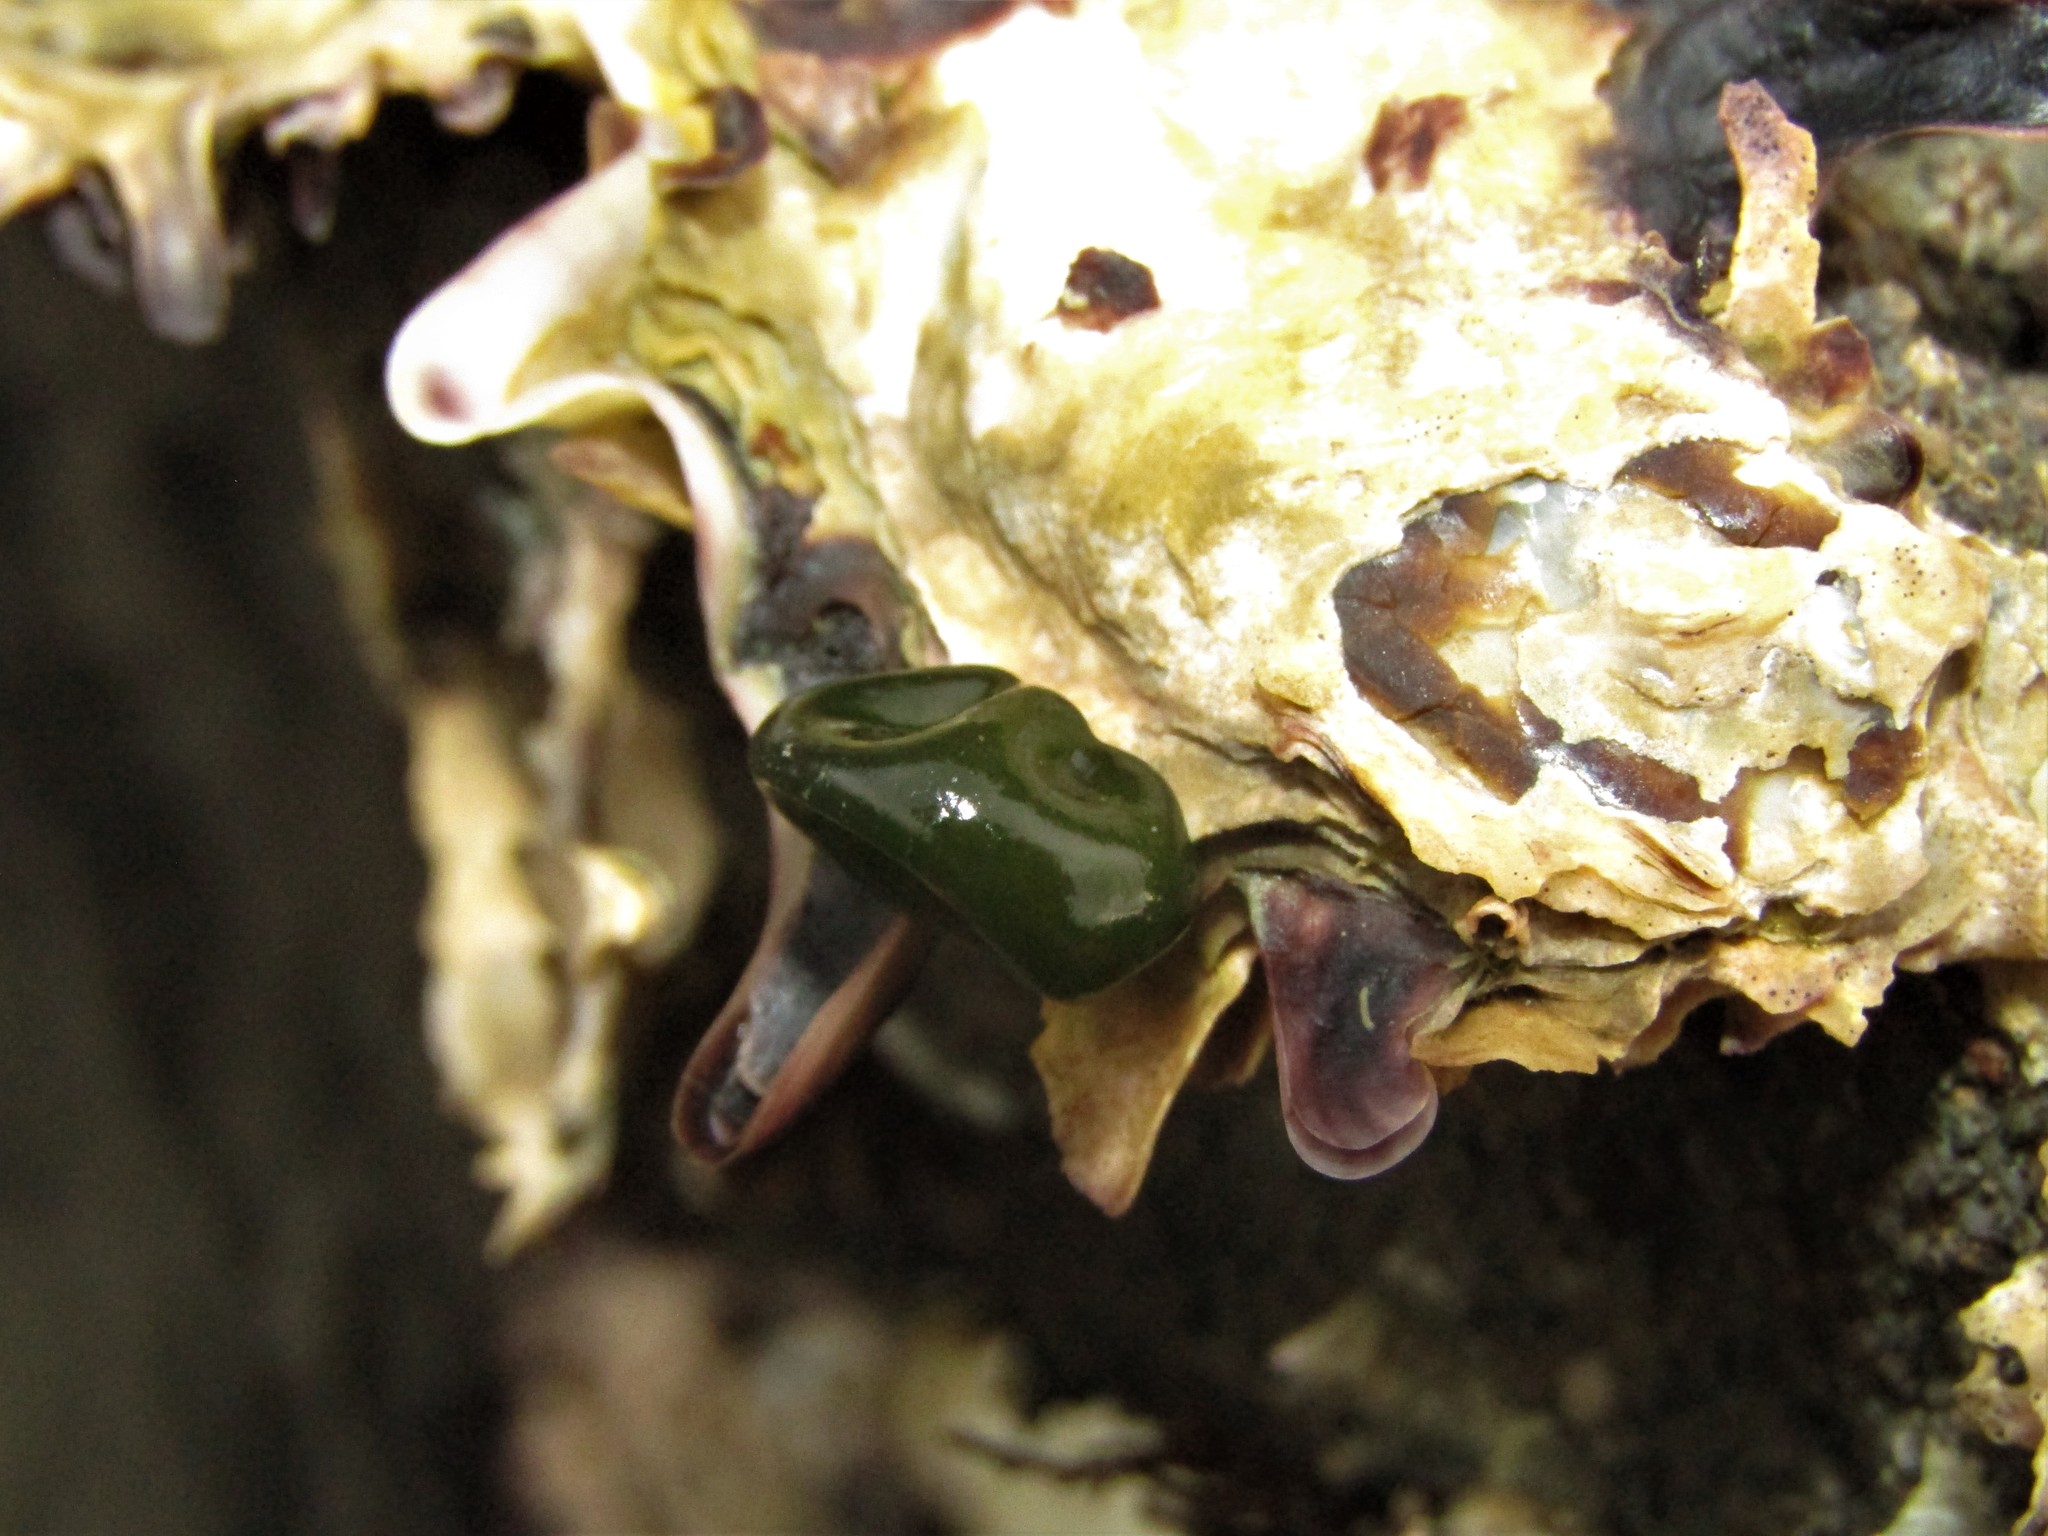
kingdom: Bacteria
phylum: Cyanobacteria
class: Cyanobacteriia
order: Cyanobacteriales
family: Nostocaceae
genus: Rivularia
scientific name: Rivularia bullata
